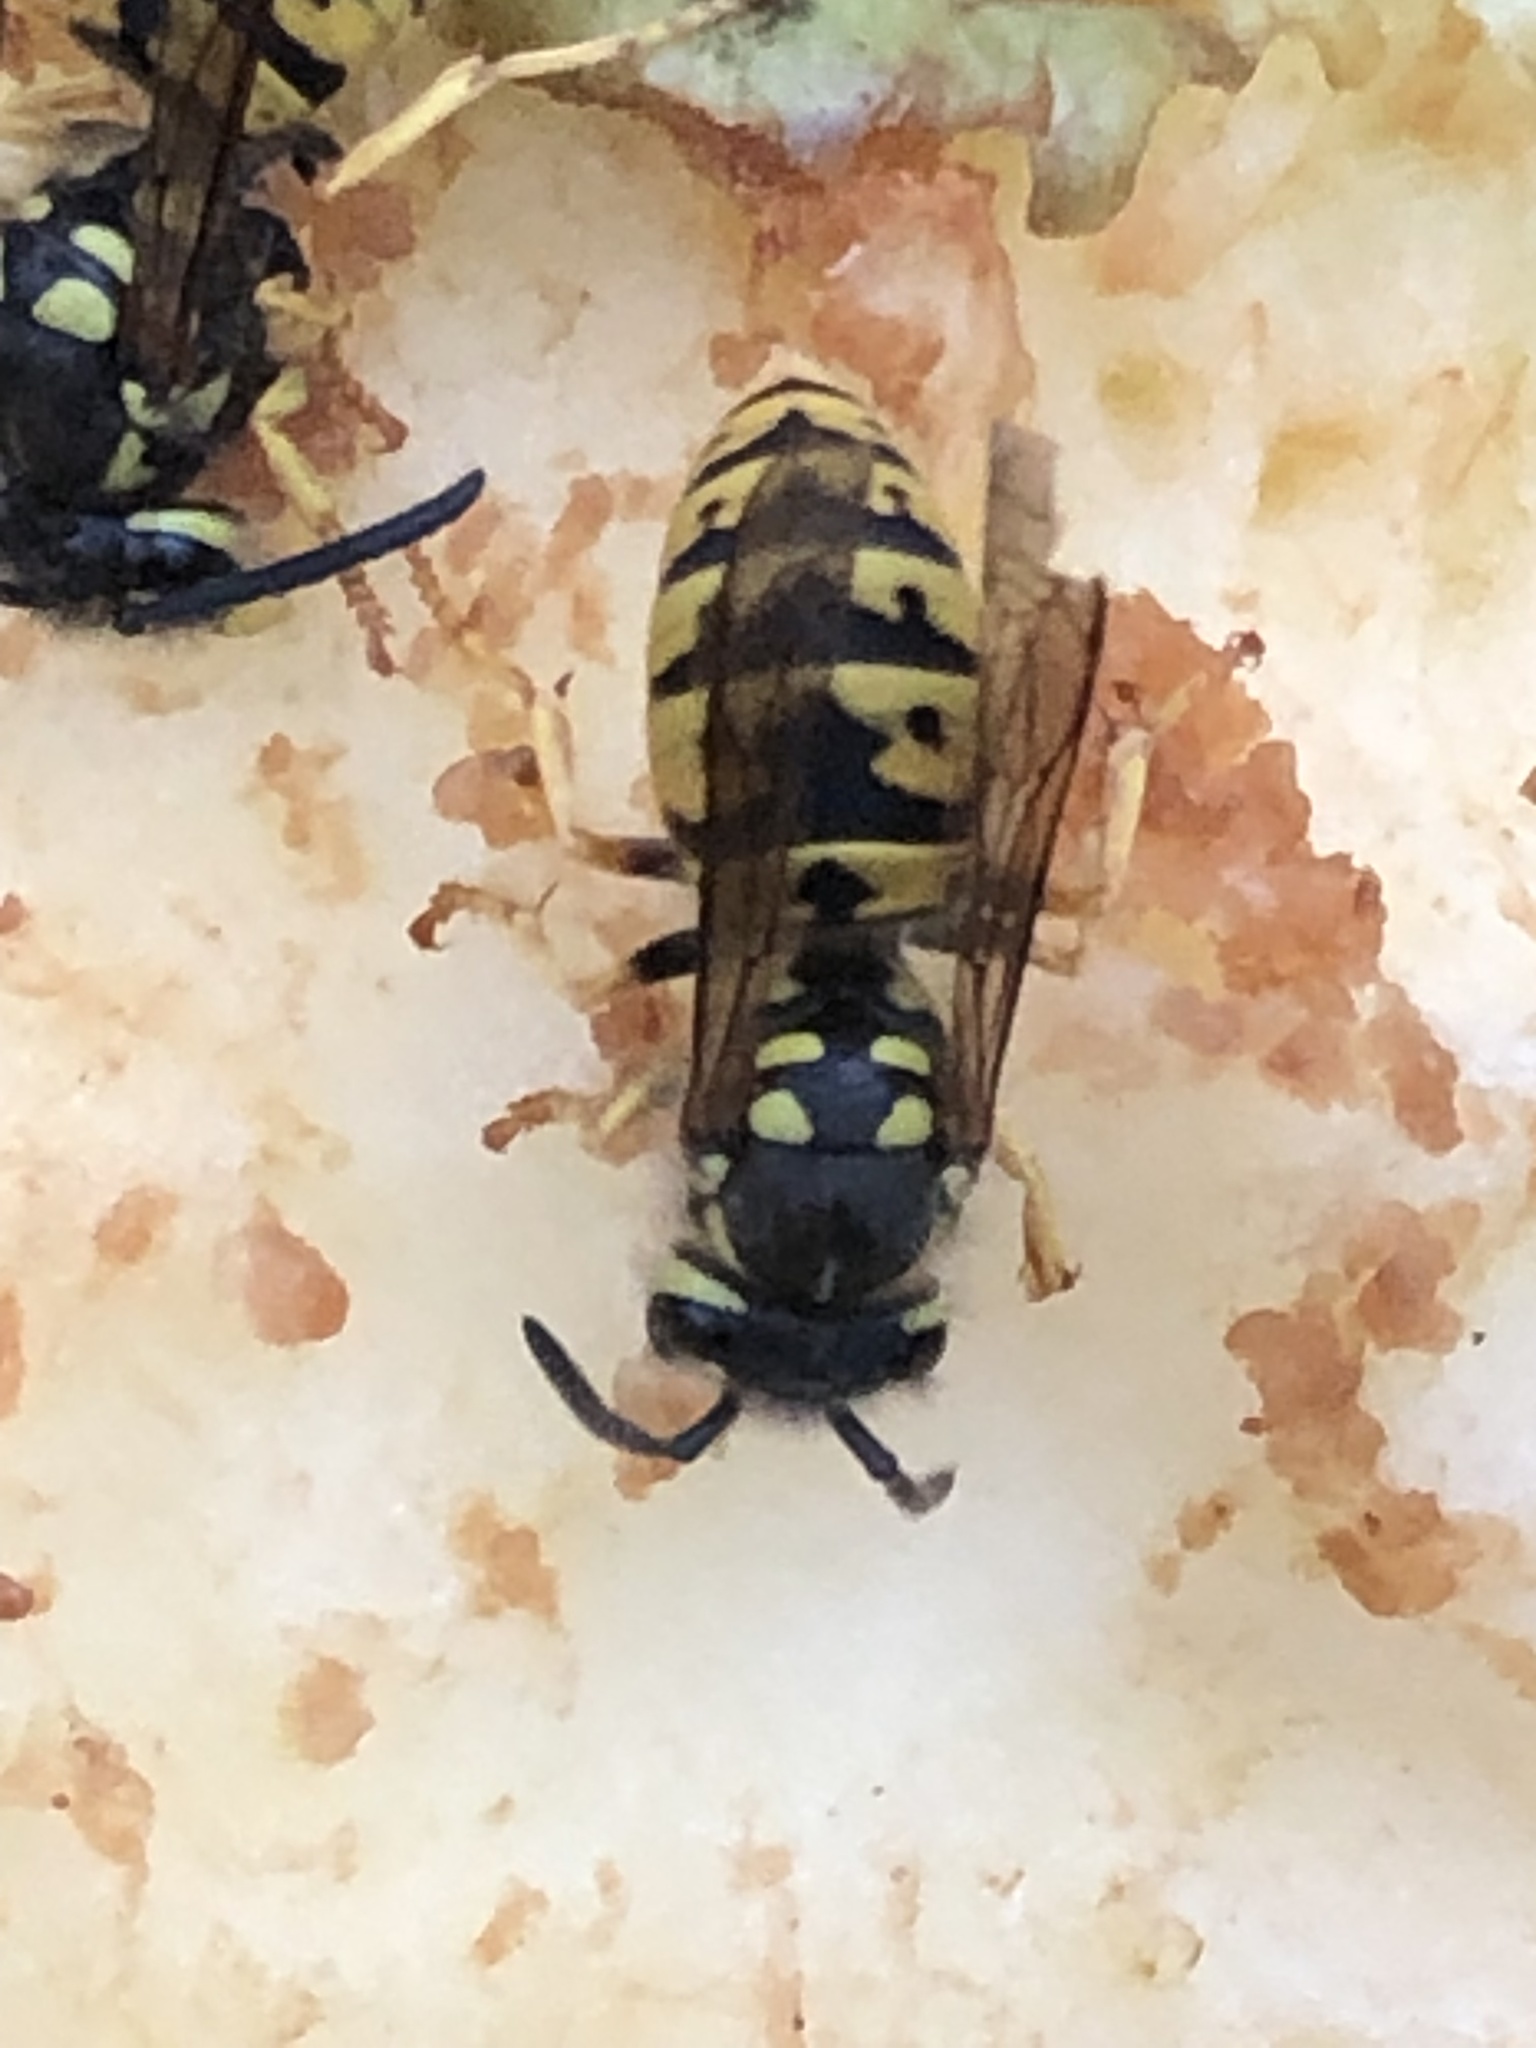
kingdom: Animalia
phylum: Arthropoda
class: Insecta
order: Hymenoptera
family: Vespidae
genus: Vespula
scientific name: Vespula germanica
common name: German wasp
